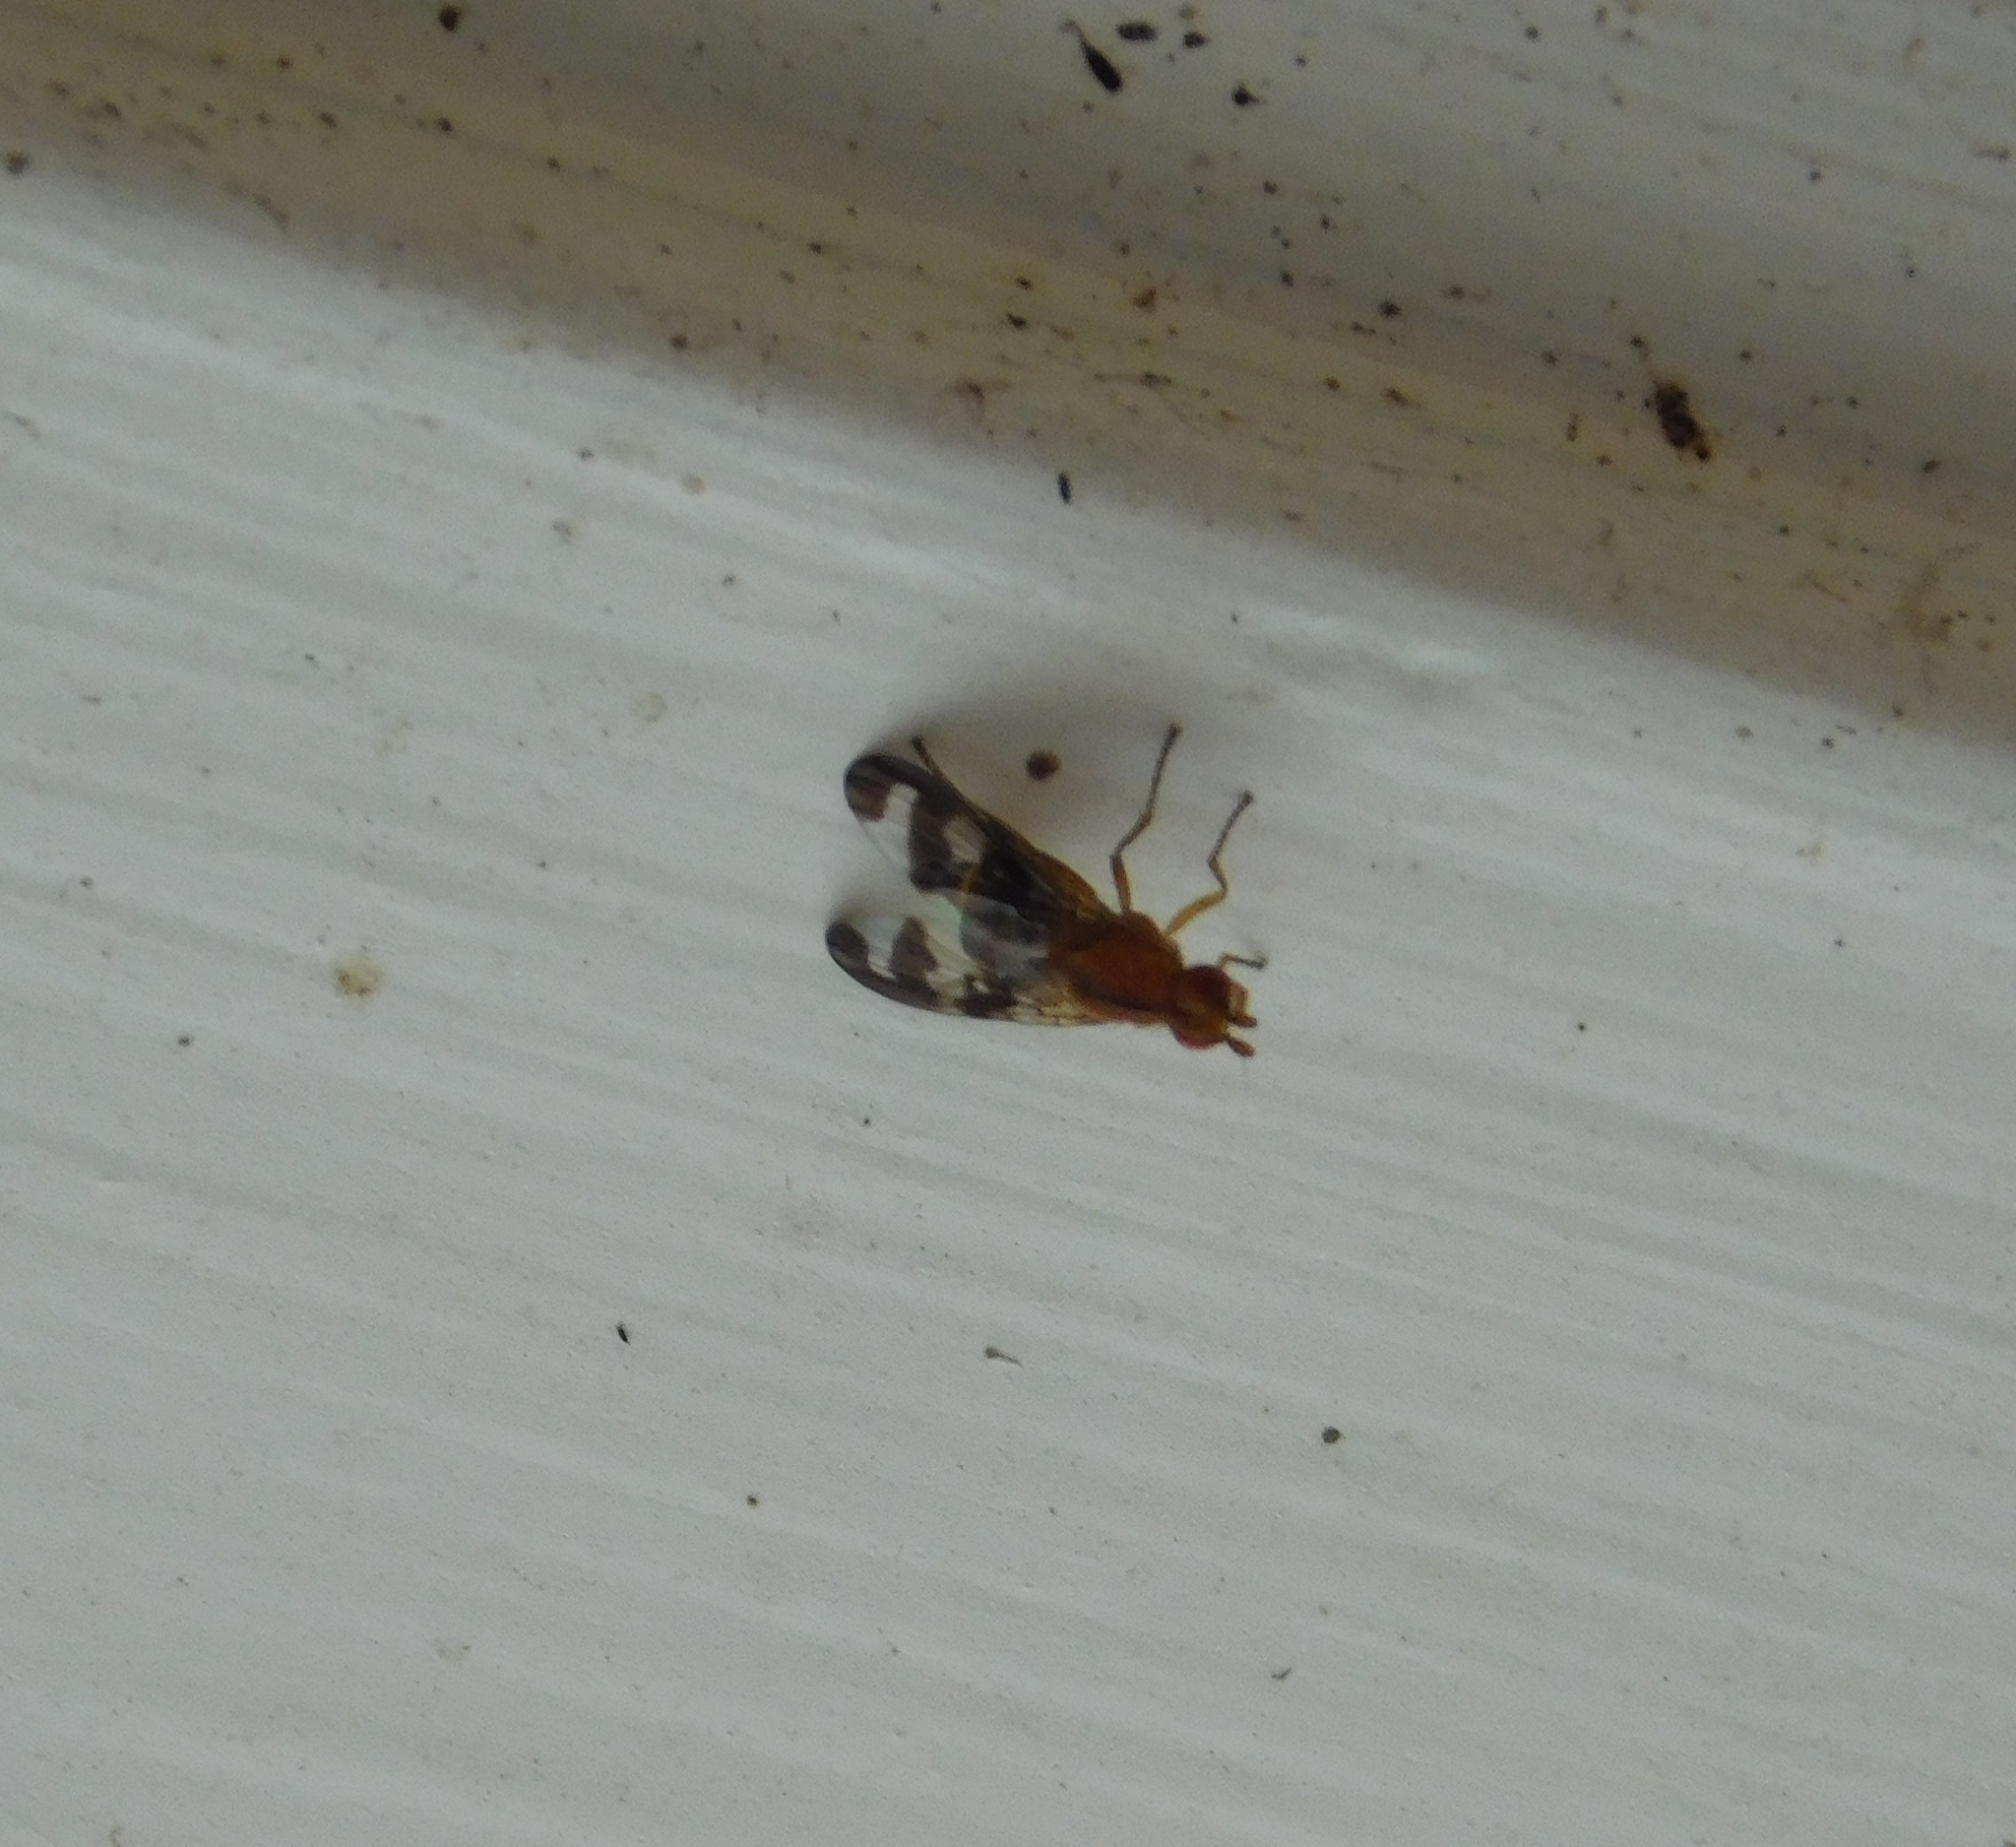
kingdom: Animalia
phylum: Arthropoda
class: Insecta
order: Diptera
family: Sciomyzidae
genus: Prosochaeta
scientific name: Prosochaeta prima
